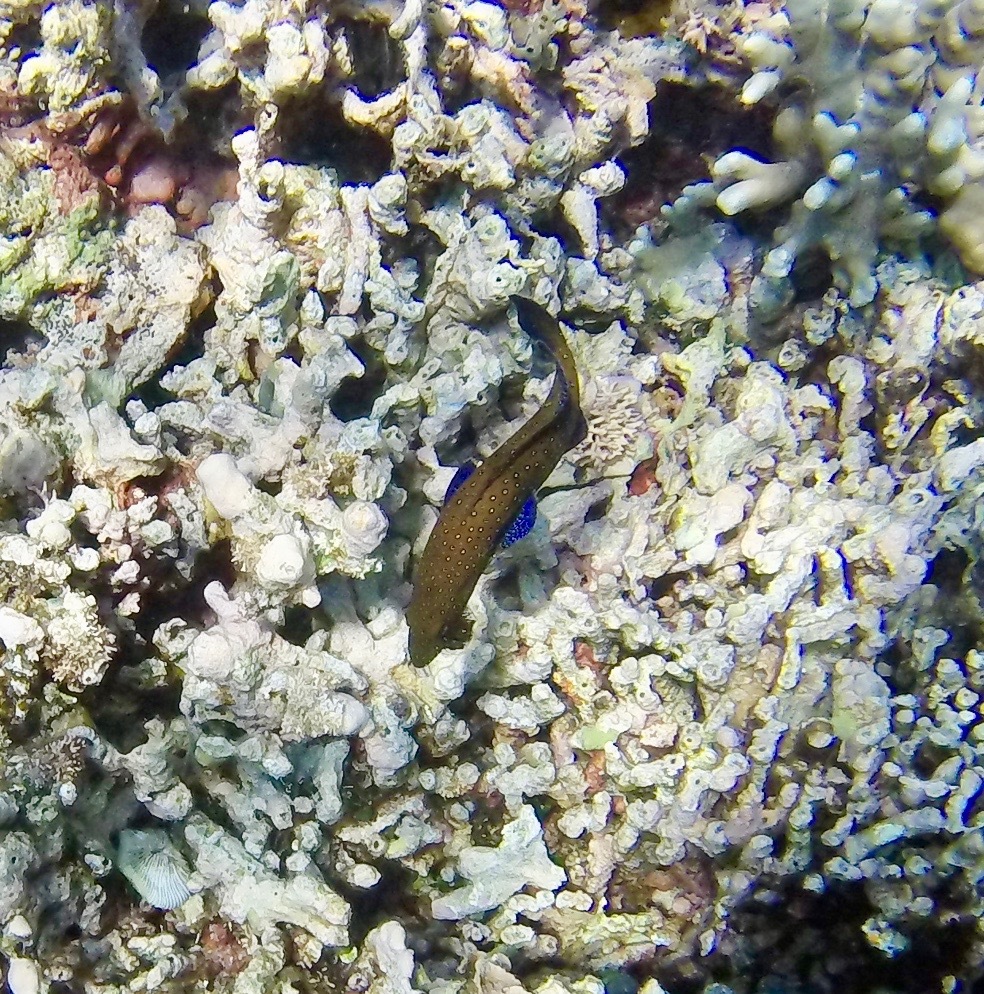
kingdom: Animalia
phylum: Chordata
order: Perciformes
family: Serranidae
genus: Cephalopholis
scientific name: Cephalopholis argus
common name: Peacock grouper
